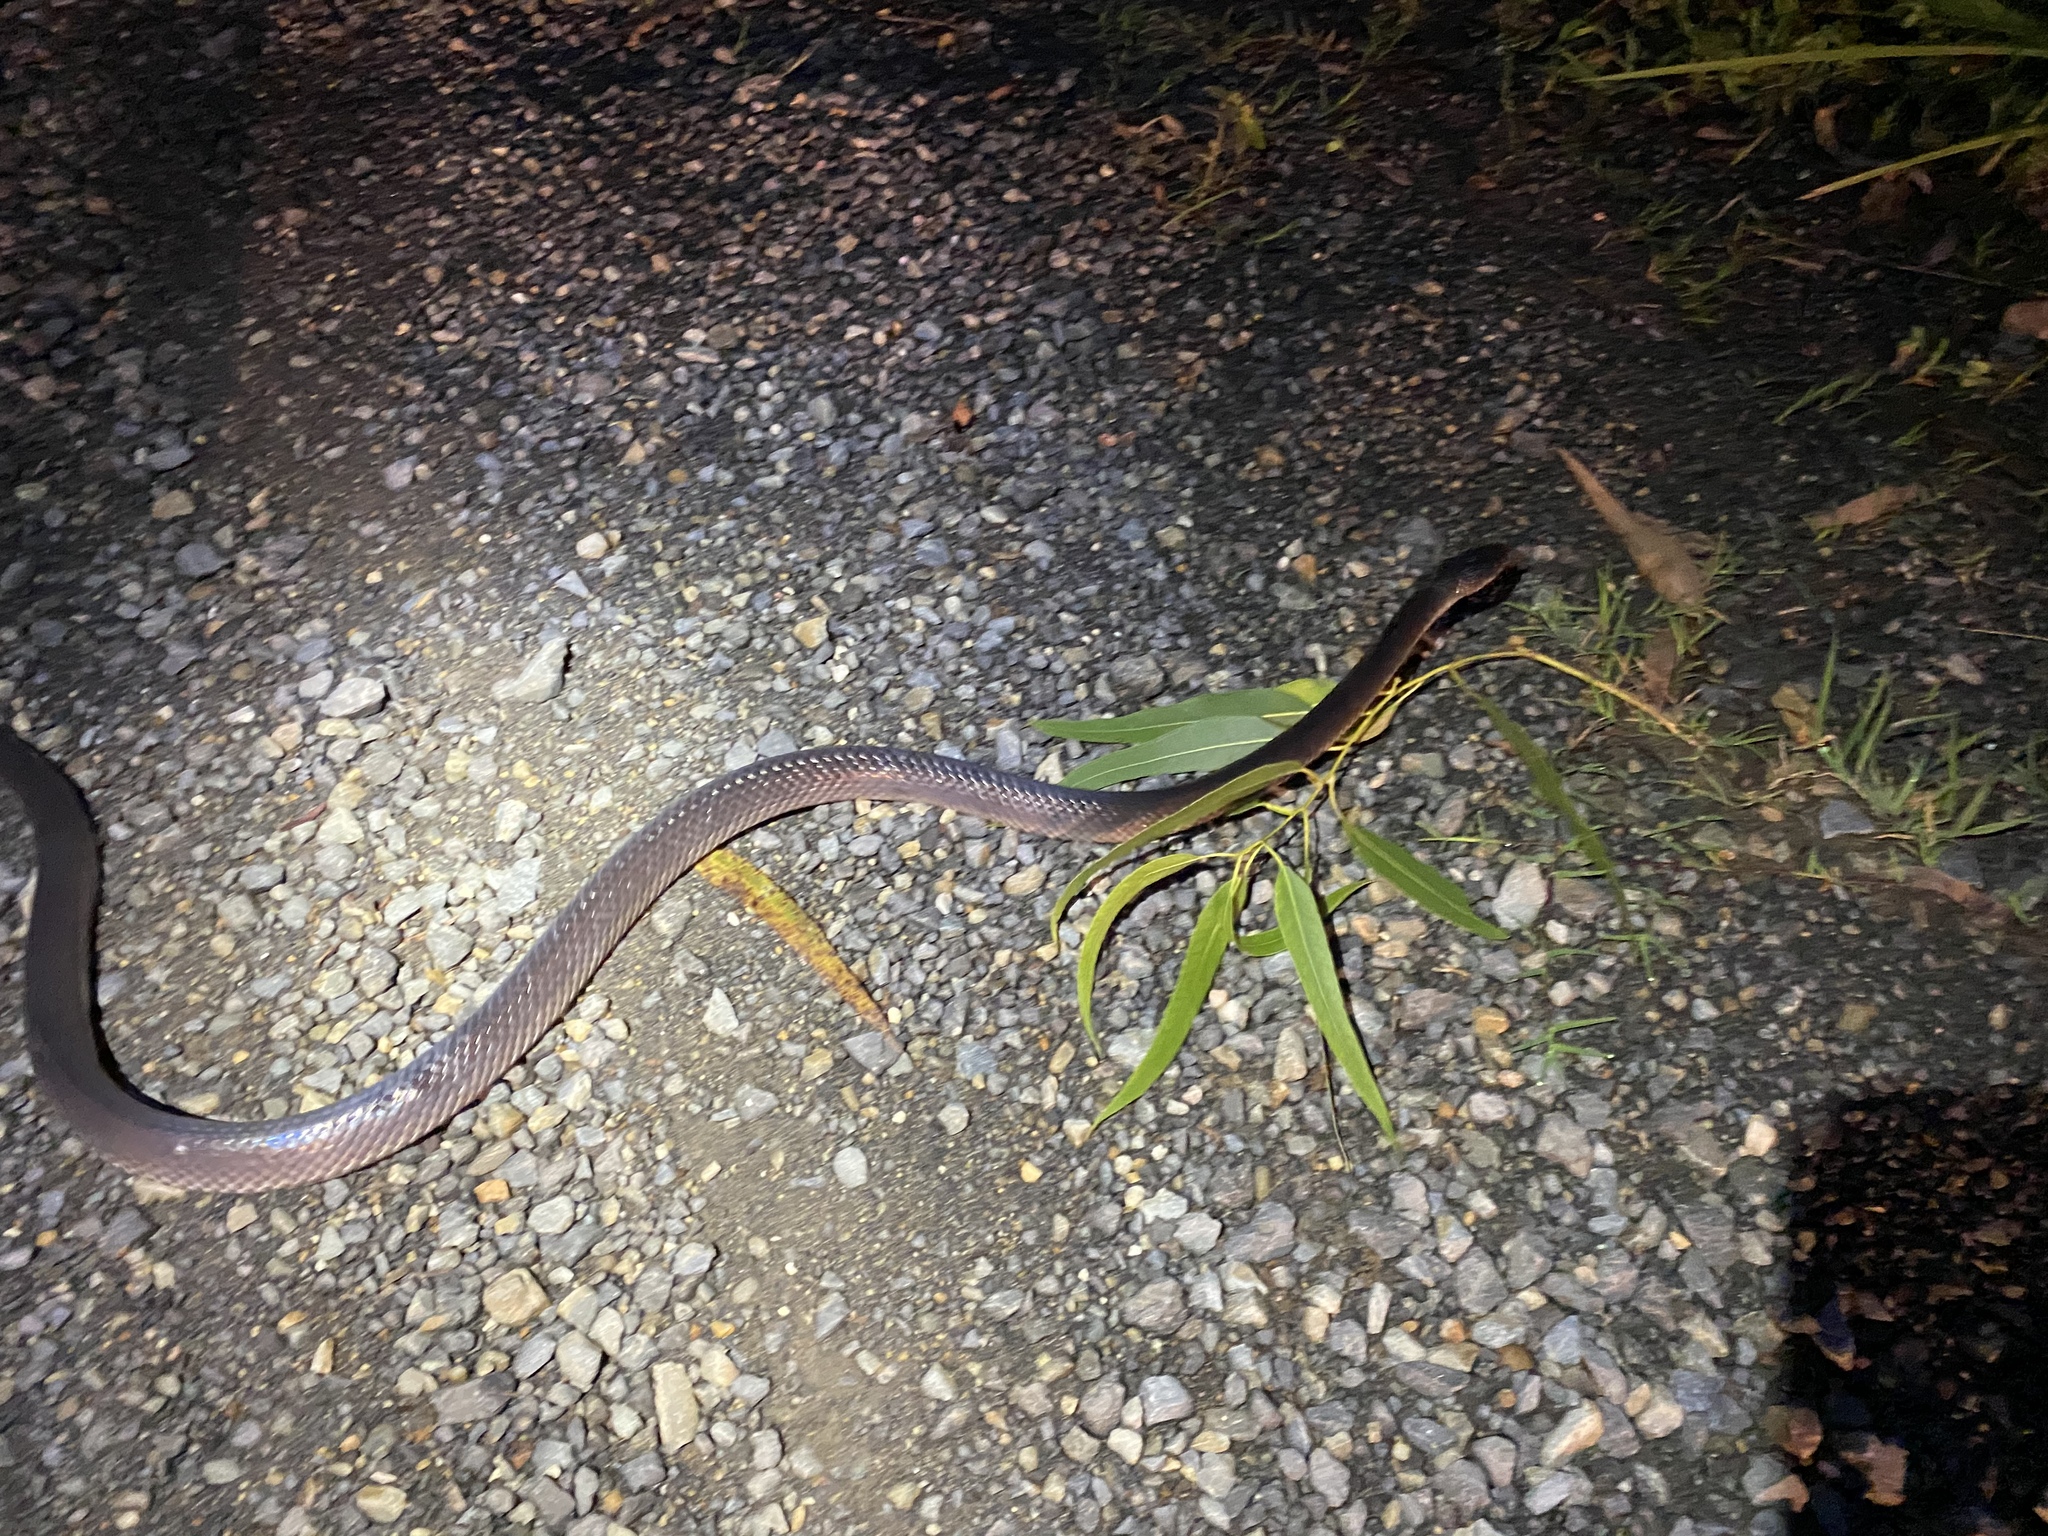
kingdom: Animalia
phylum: Chordata
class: Squamata
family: Pythonidae
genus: Liasis
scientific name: Liasis fuscus
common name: Brown water python
